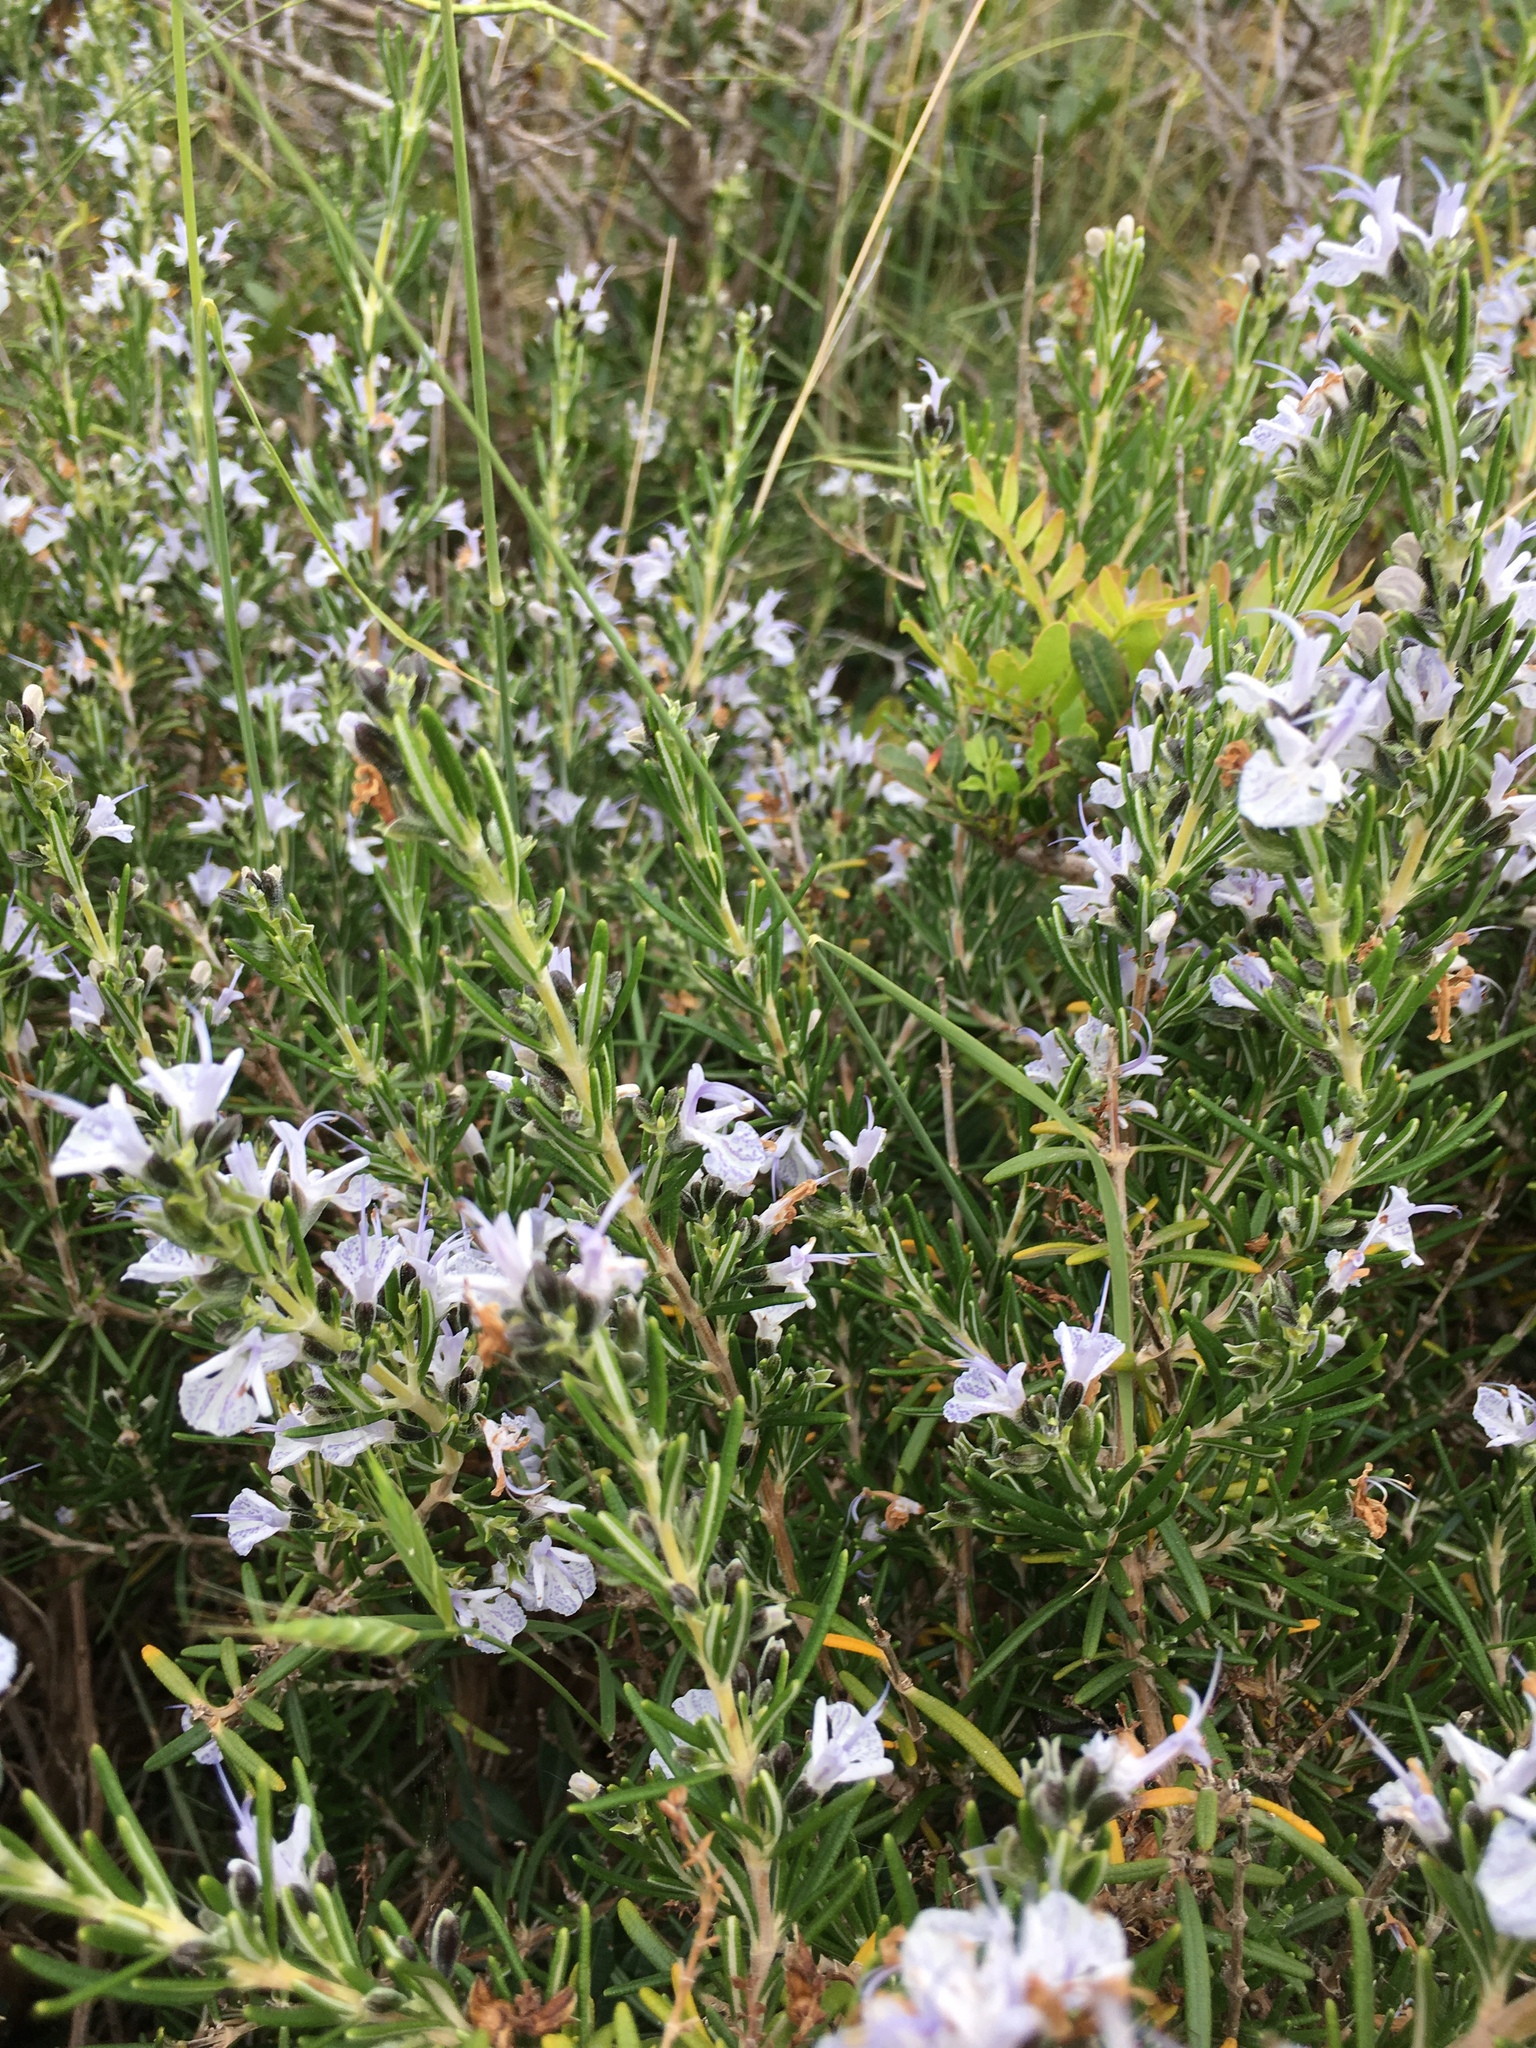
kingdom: Plantae
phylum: Tracheophyta
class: Magnoliopsida
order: Lamiales
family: Lamiaceae
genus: Salvia
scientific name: Salvia rosmarinus
